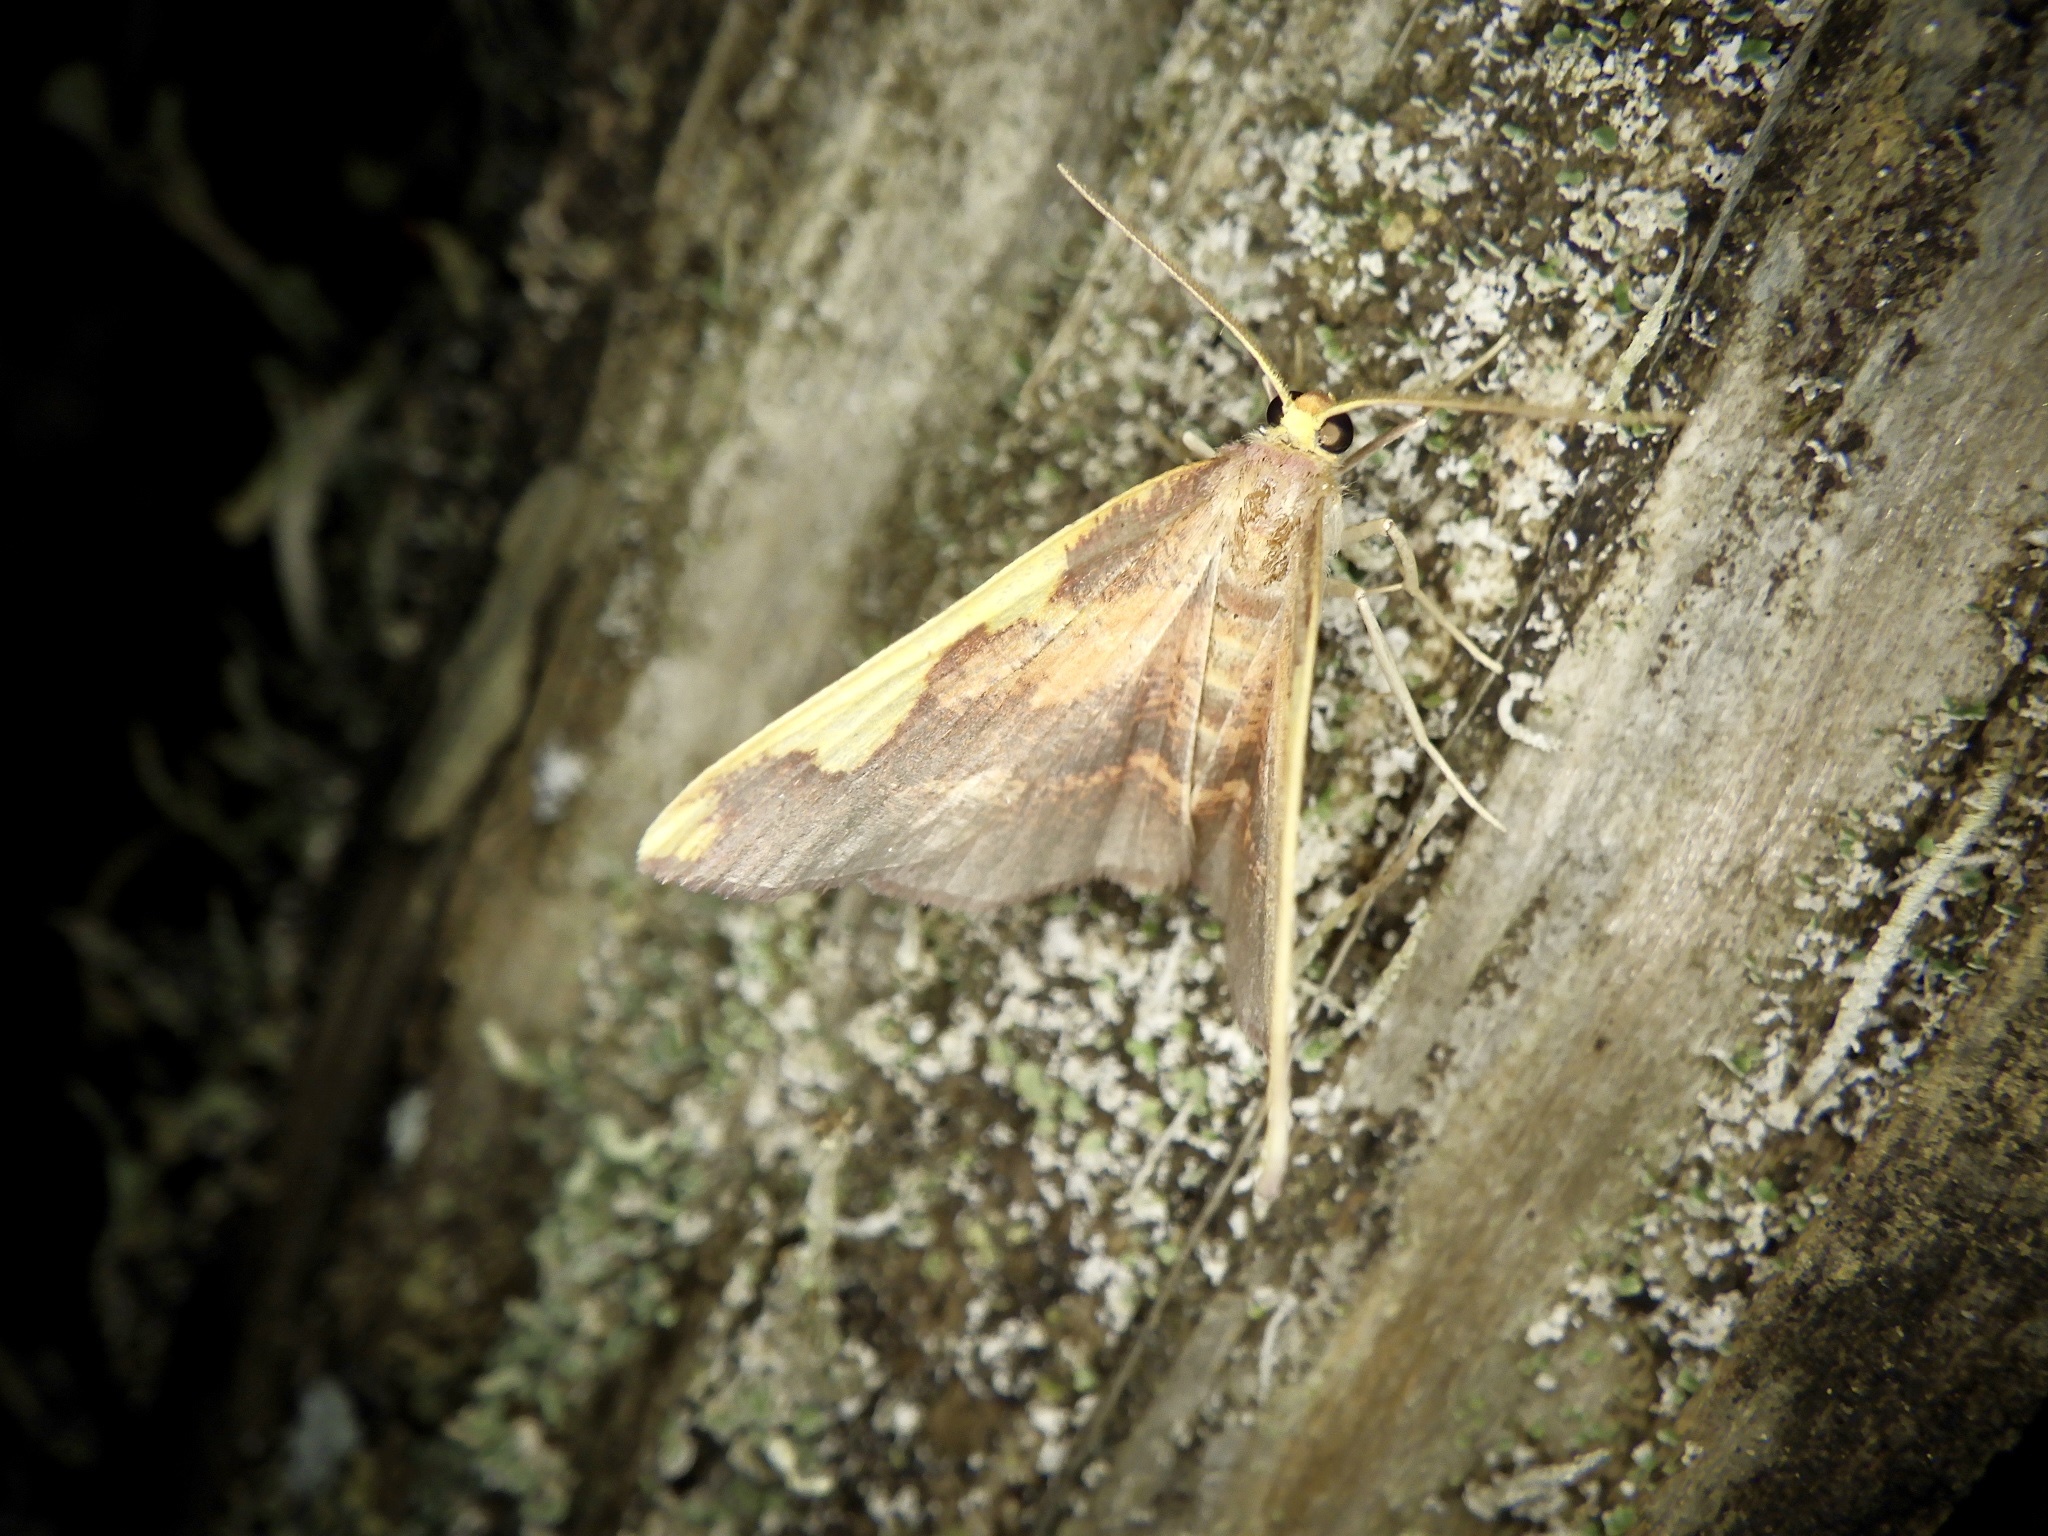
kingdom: Animalia
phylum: Arthropoda
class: Insecta
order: Lepidoptera
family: Geometridae
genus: Nothomiza
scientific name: Nothomiza formosa
